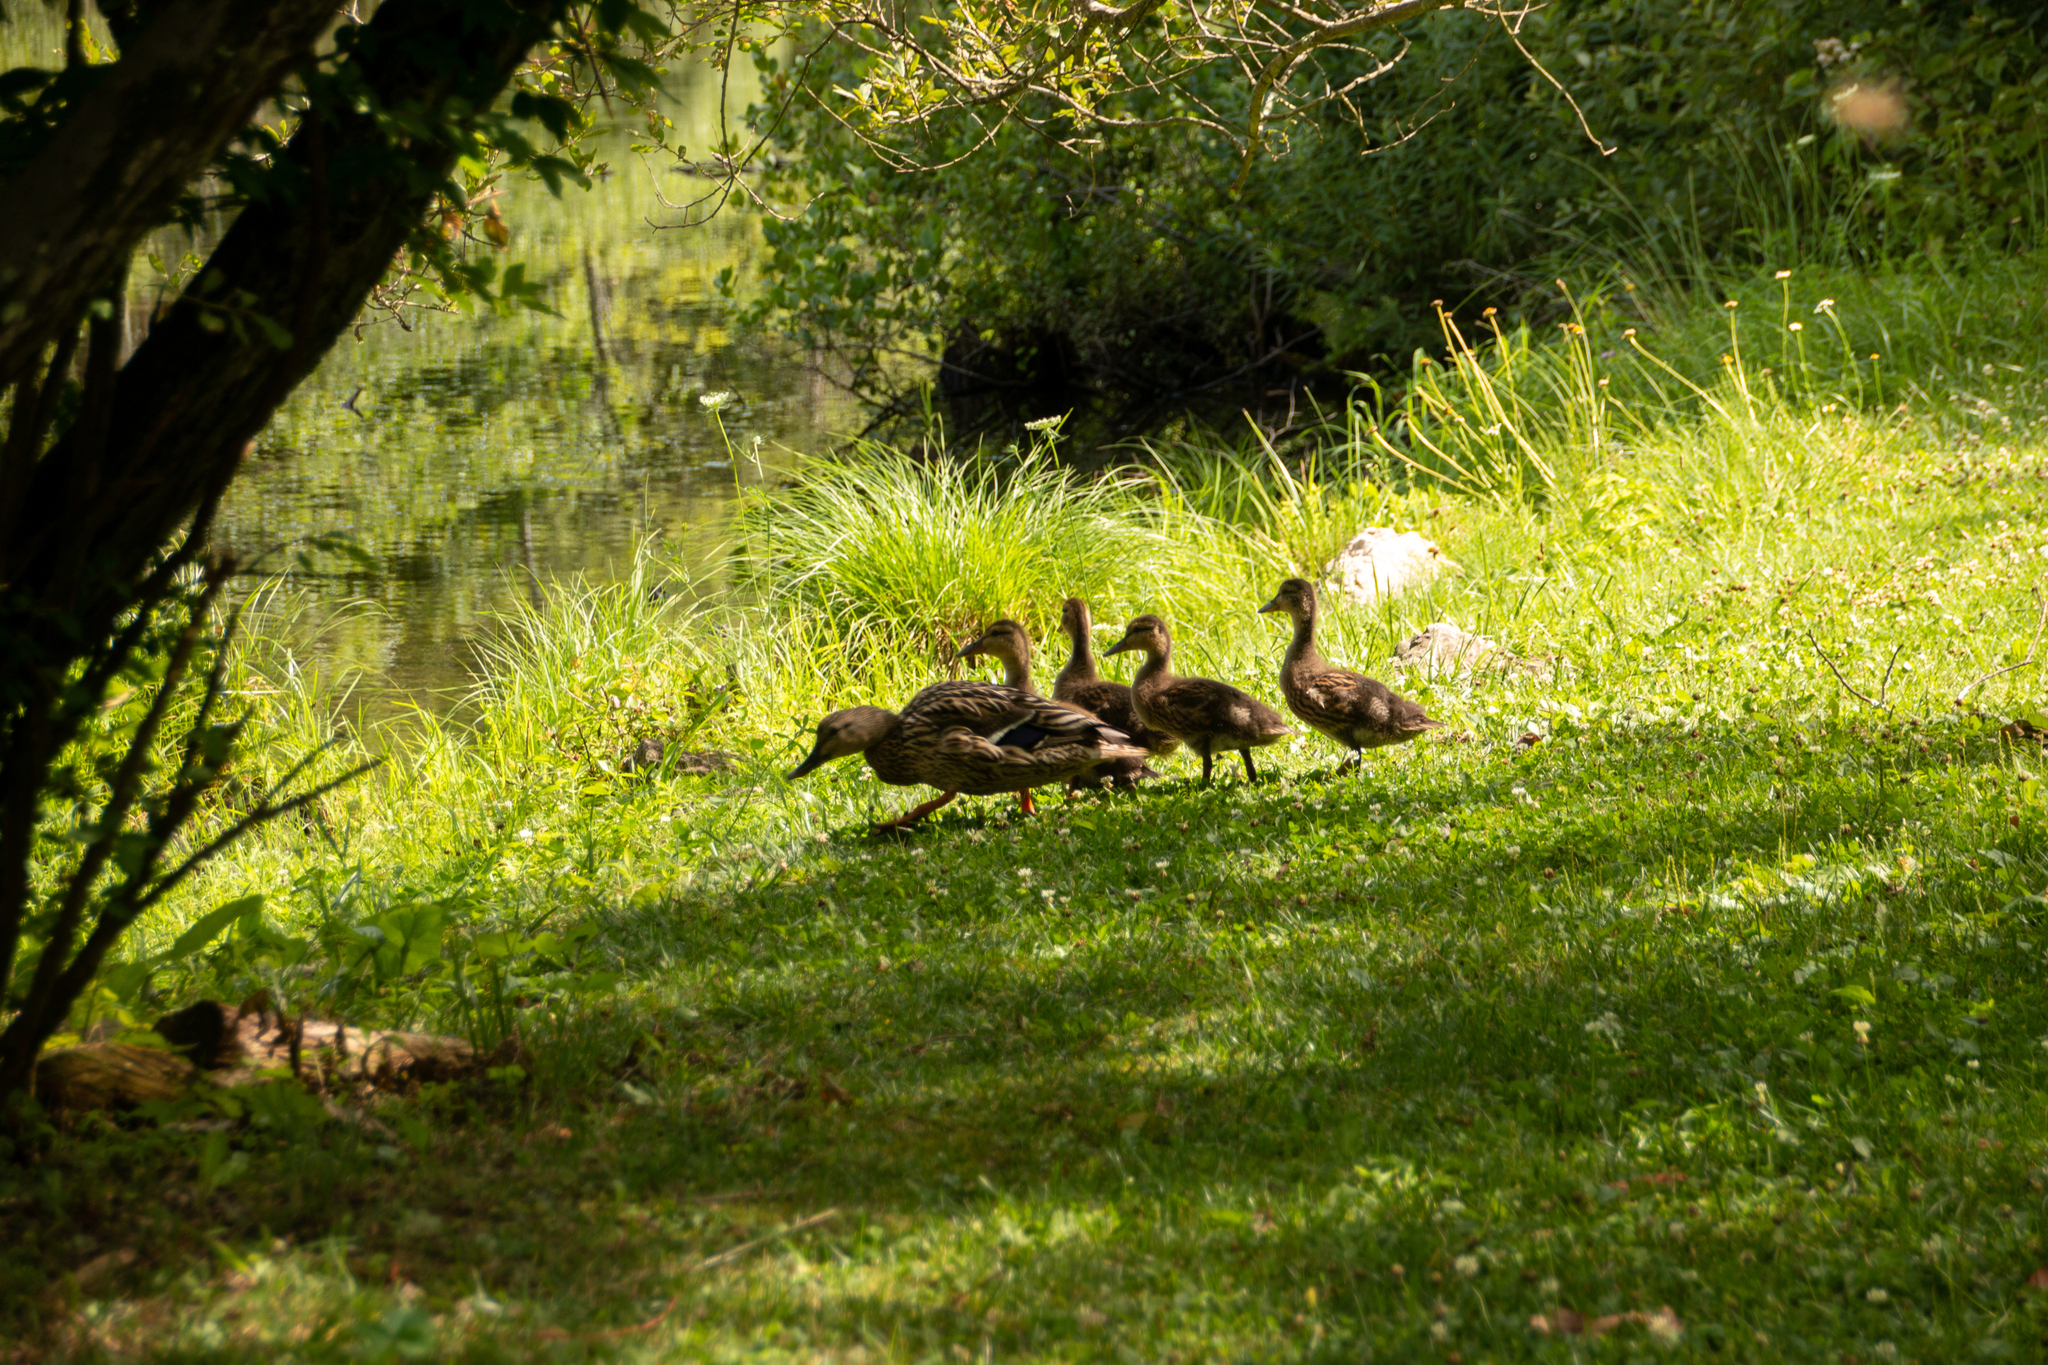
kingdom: Animalia
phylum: Chordata
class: Aves
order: Anseriformes
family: Anatidae
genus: Anas
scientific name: Anas platyrhynchos
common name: Mallard
